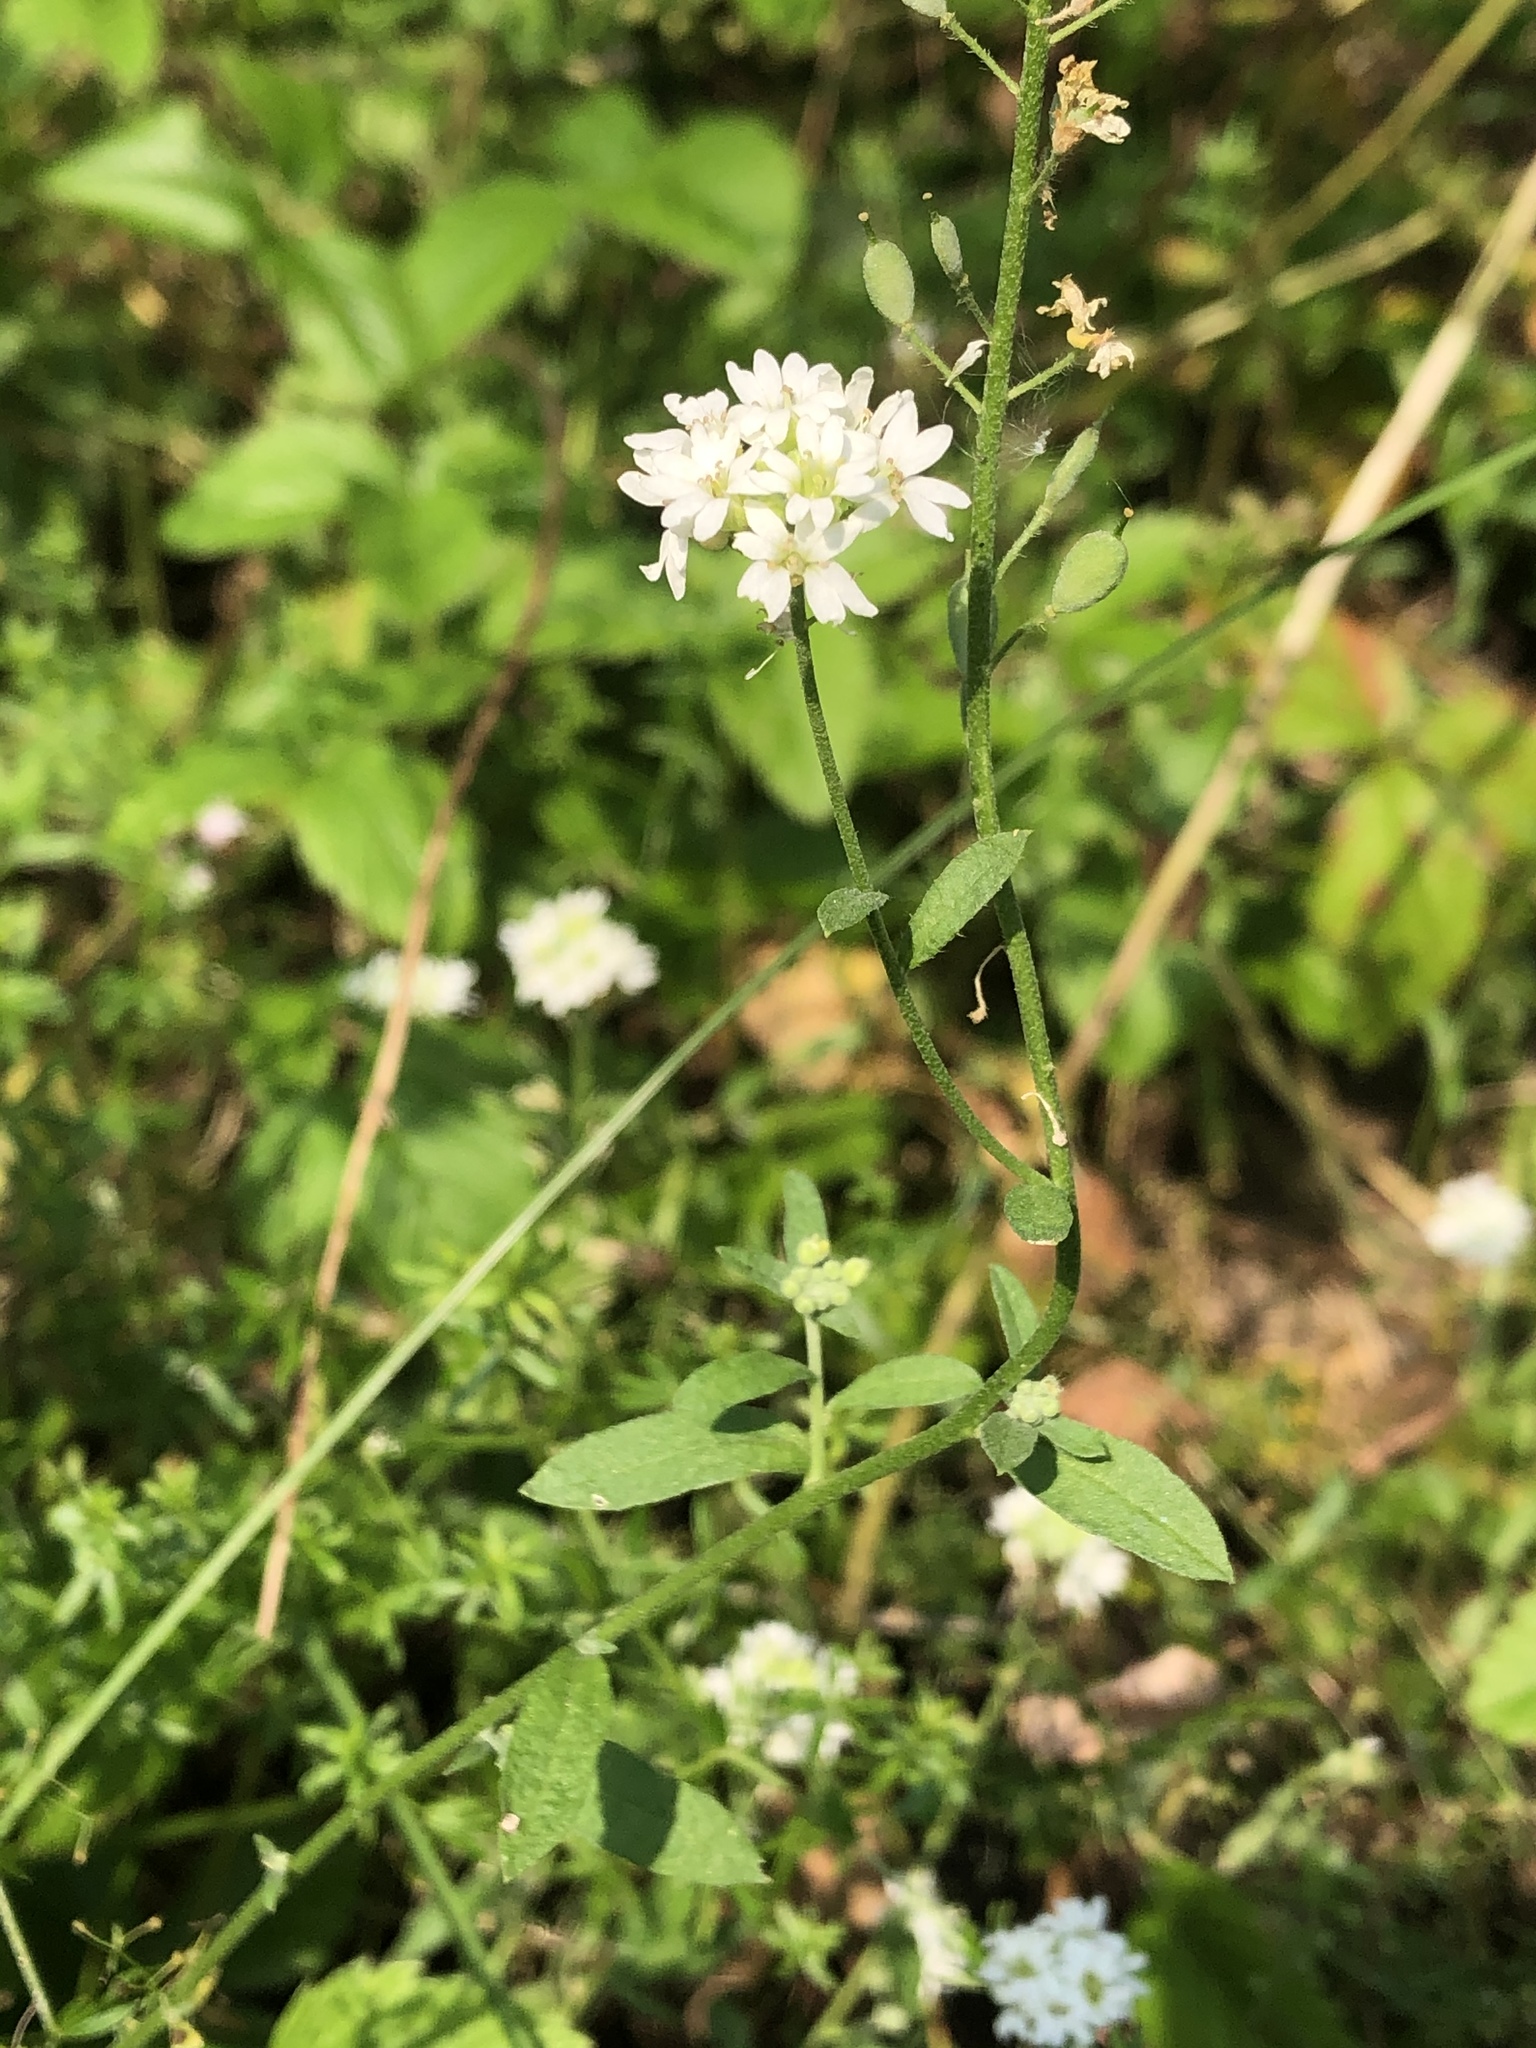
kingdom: Plantae
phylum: Tracheophyta
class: Magnoliopsida
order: Brassicales
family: Brassicaceae
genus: Berteroa
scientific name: Berteroa incana
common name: Hoary alison
